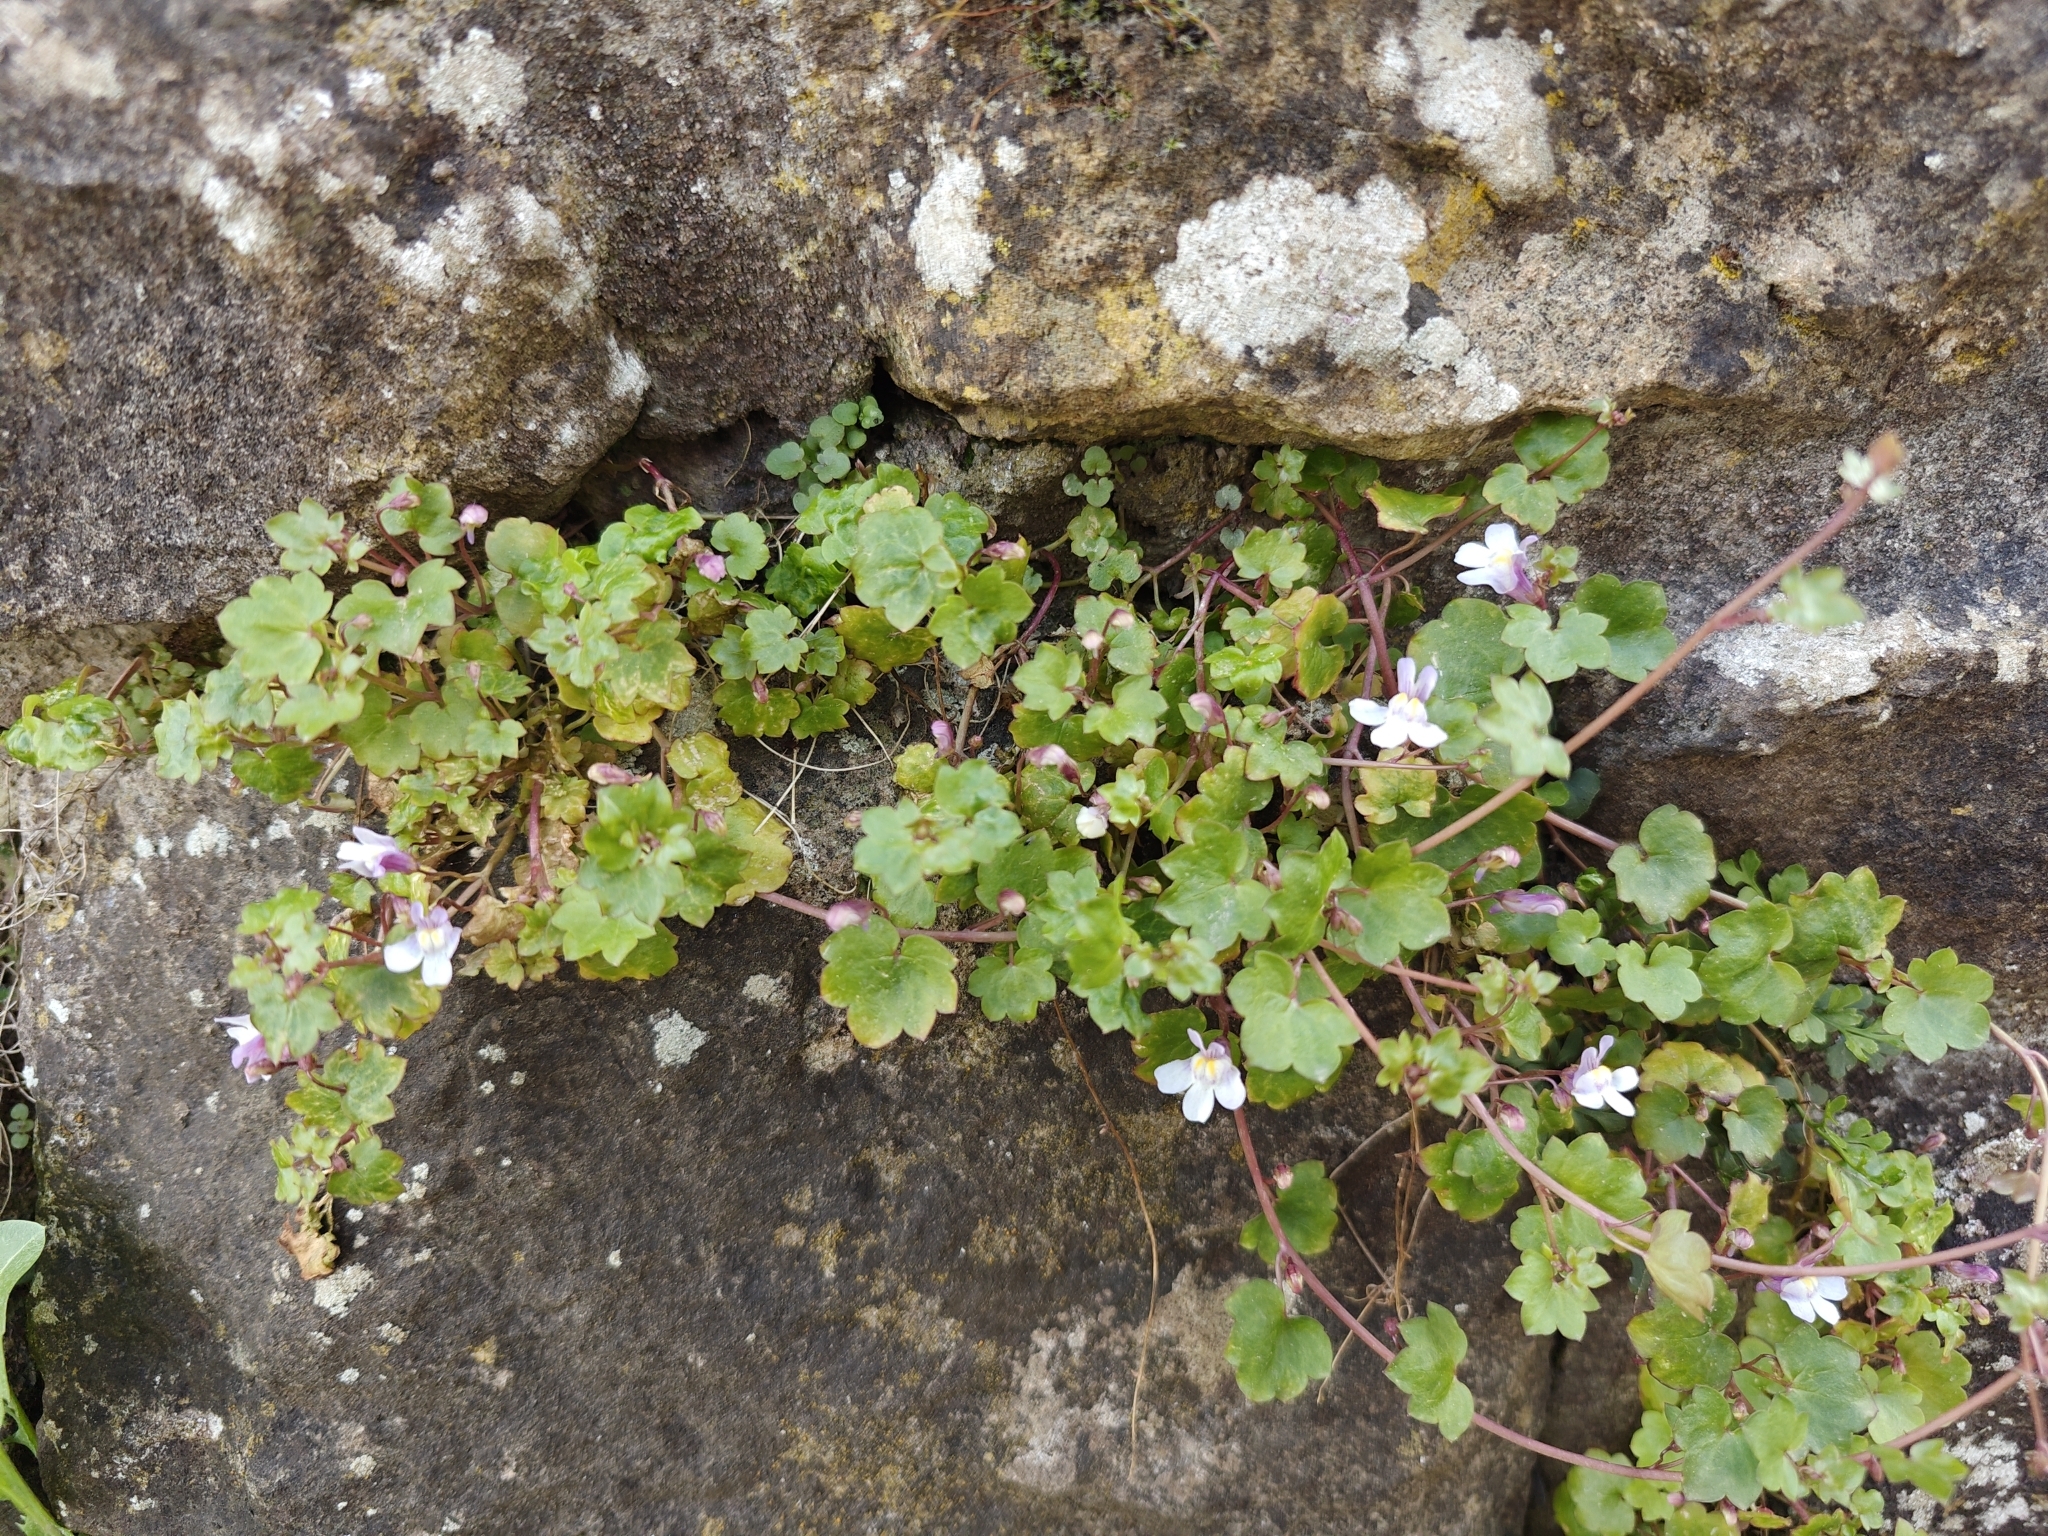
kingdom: Plantae
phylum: Tracheophyta
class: Magnoliopsida
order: Lamiales
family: Plantaginaceae
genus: Cymbalaria
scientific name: Cymbalaria muralis
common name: Ivy-leaved toadflax
